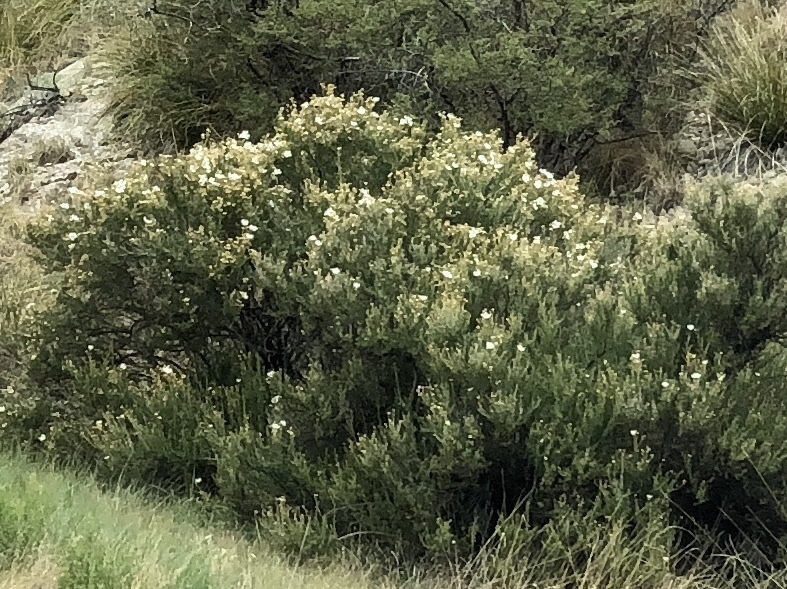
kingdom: Plantae
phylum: Tracheophyta
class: Magnoliopsida
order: Rosales
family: Rosaceae
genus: Fallugia
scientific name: Fallugia paradoxa
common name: Apache-plume
